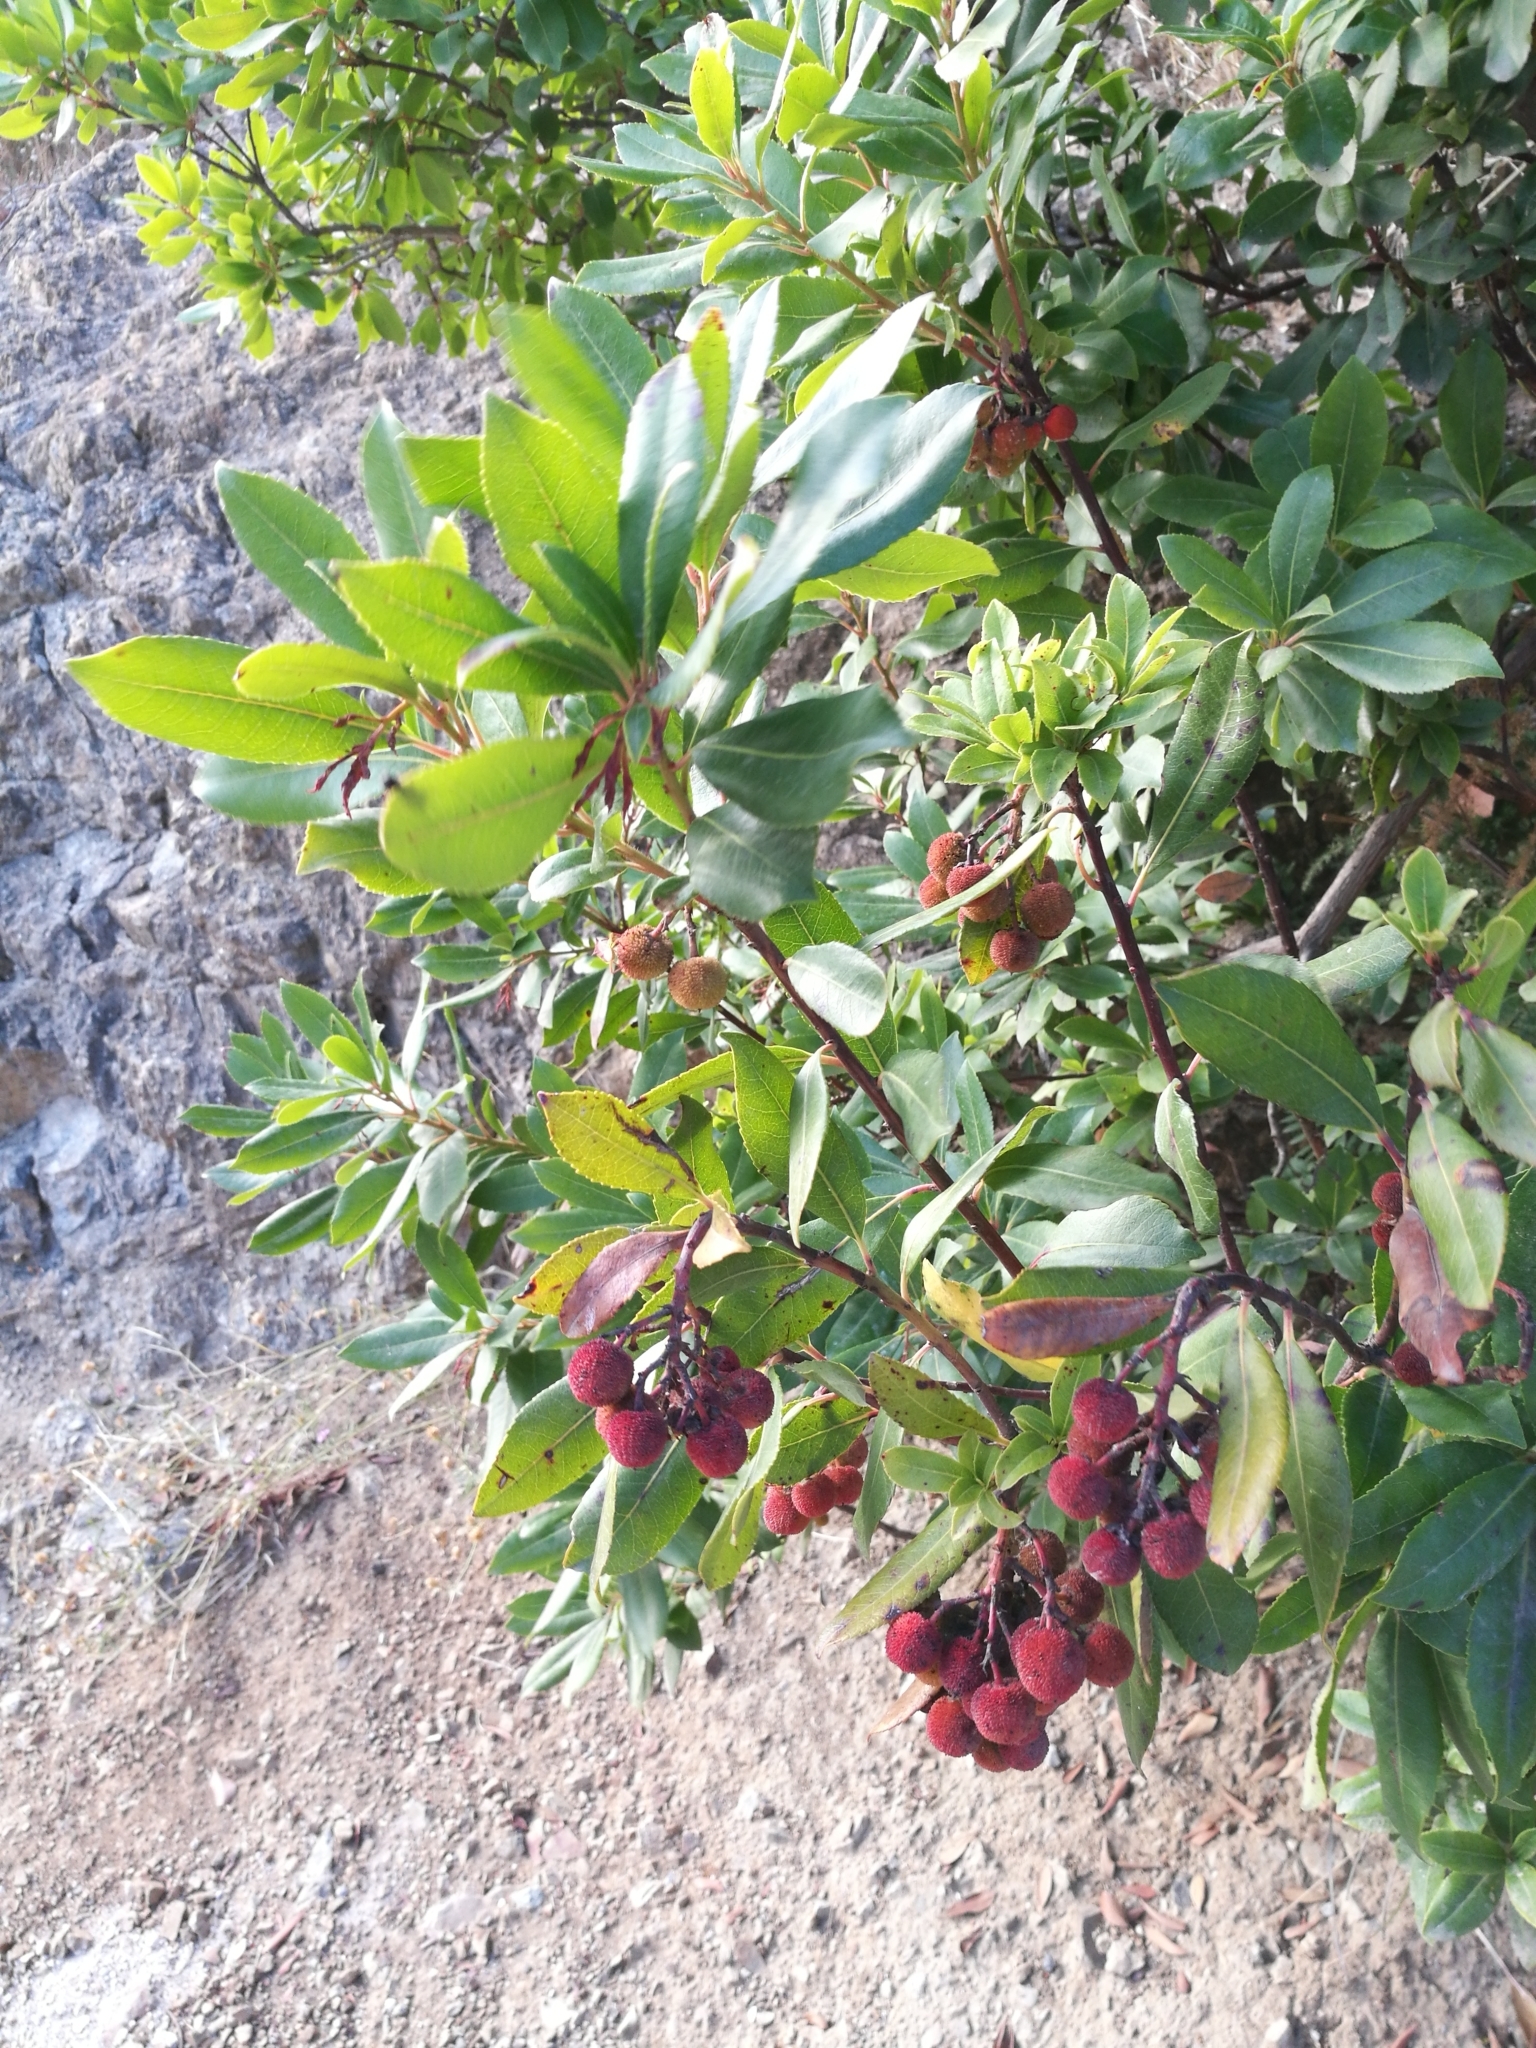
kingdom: Plantae
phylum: Tracheophyta
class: Magnoliopsida
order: Ericales
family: Ericaceae
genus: Arbutus
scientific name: Arbutus unedo
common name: Strawberry-tree
